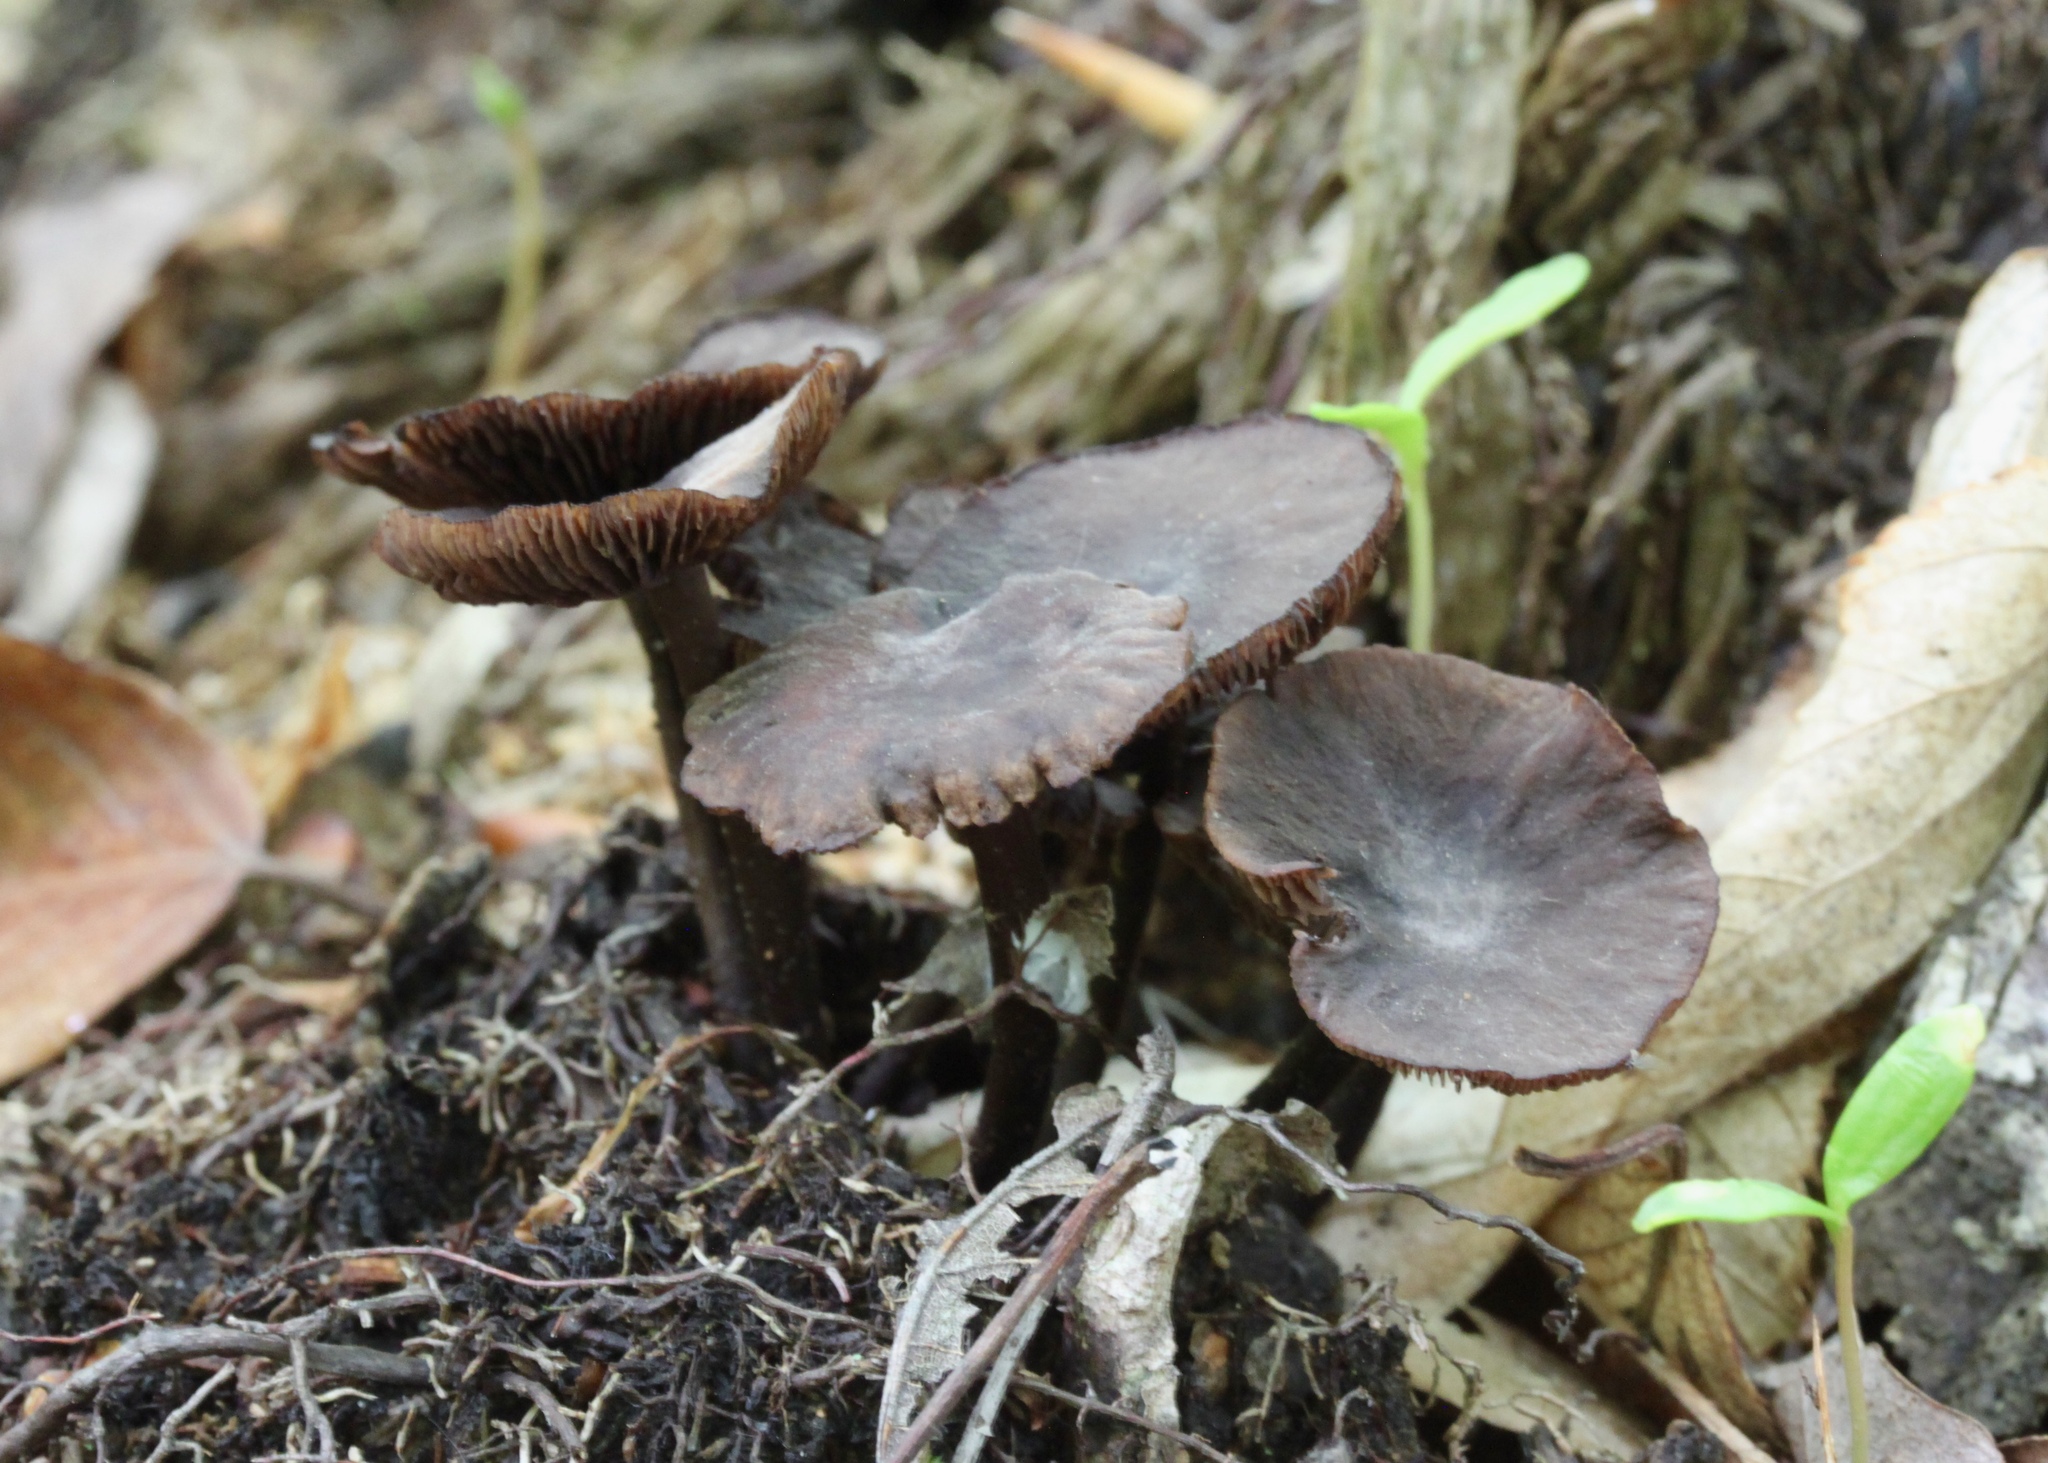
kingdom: Fungi
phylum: Basidiomycota
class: Agaricomycetes
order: Agaricales
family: Omphalotaceae
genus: Gymnopus
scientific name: Gymnopus alkalivirens
